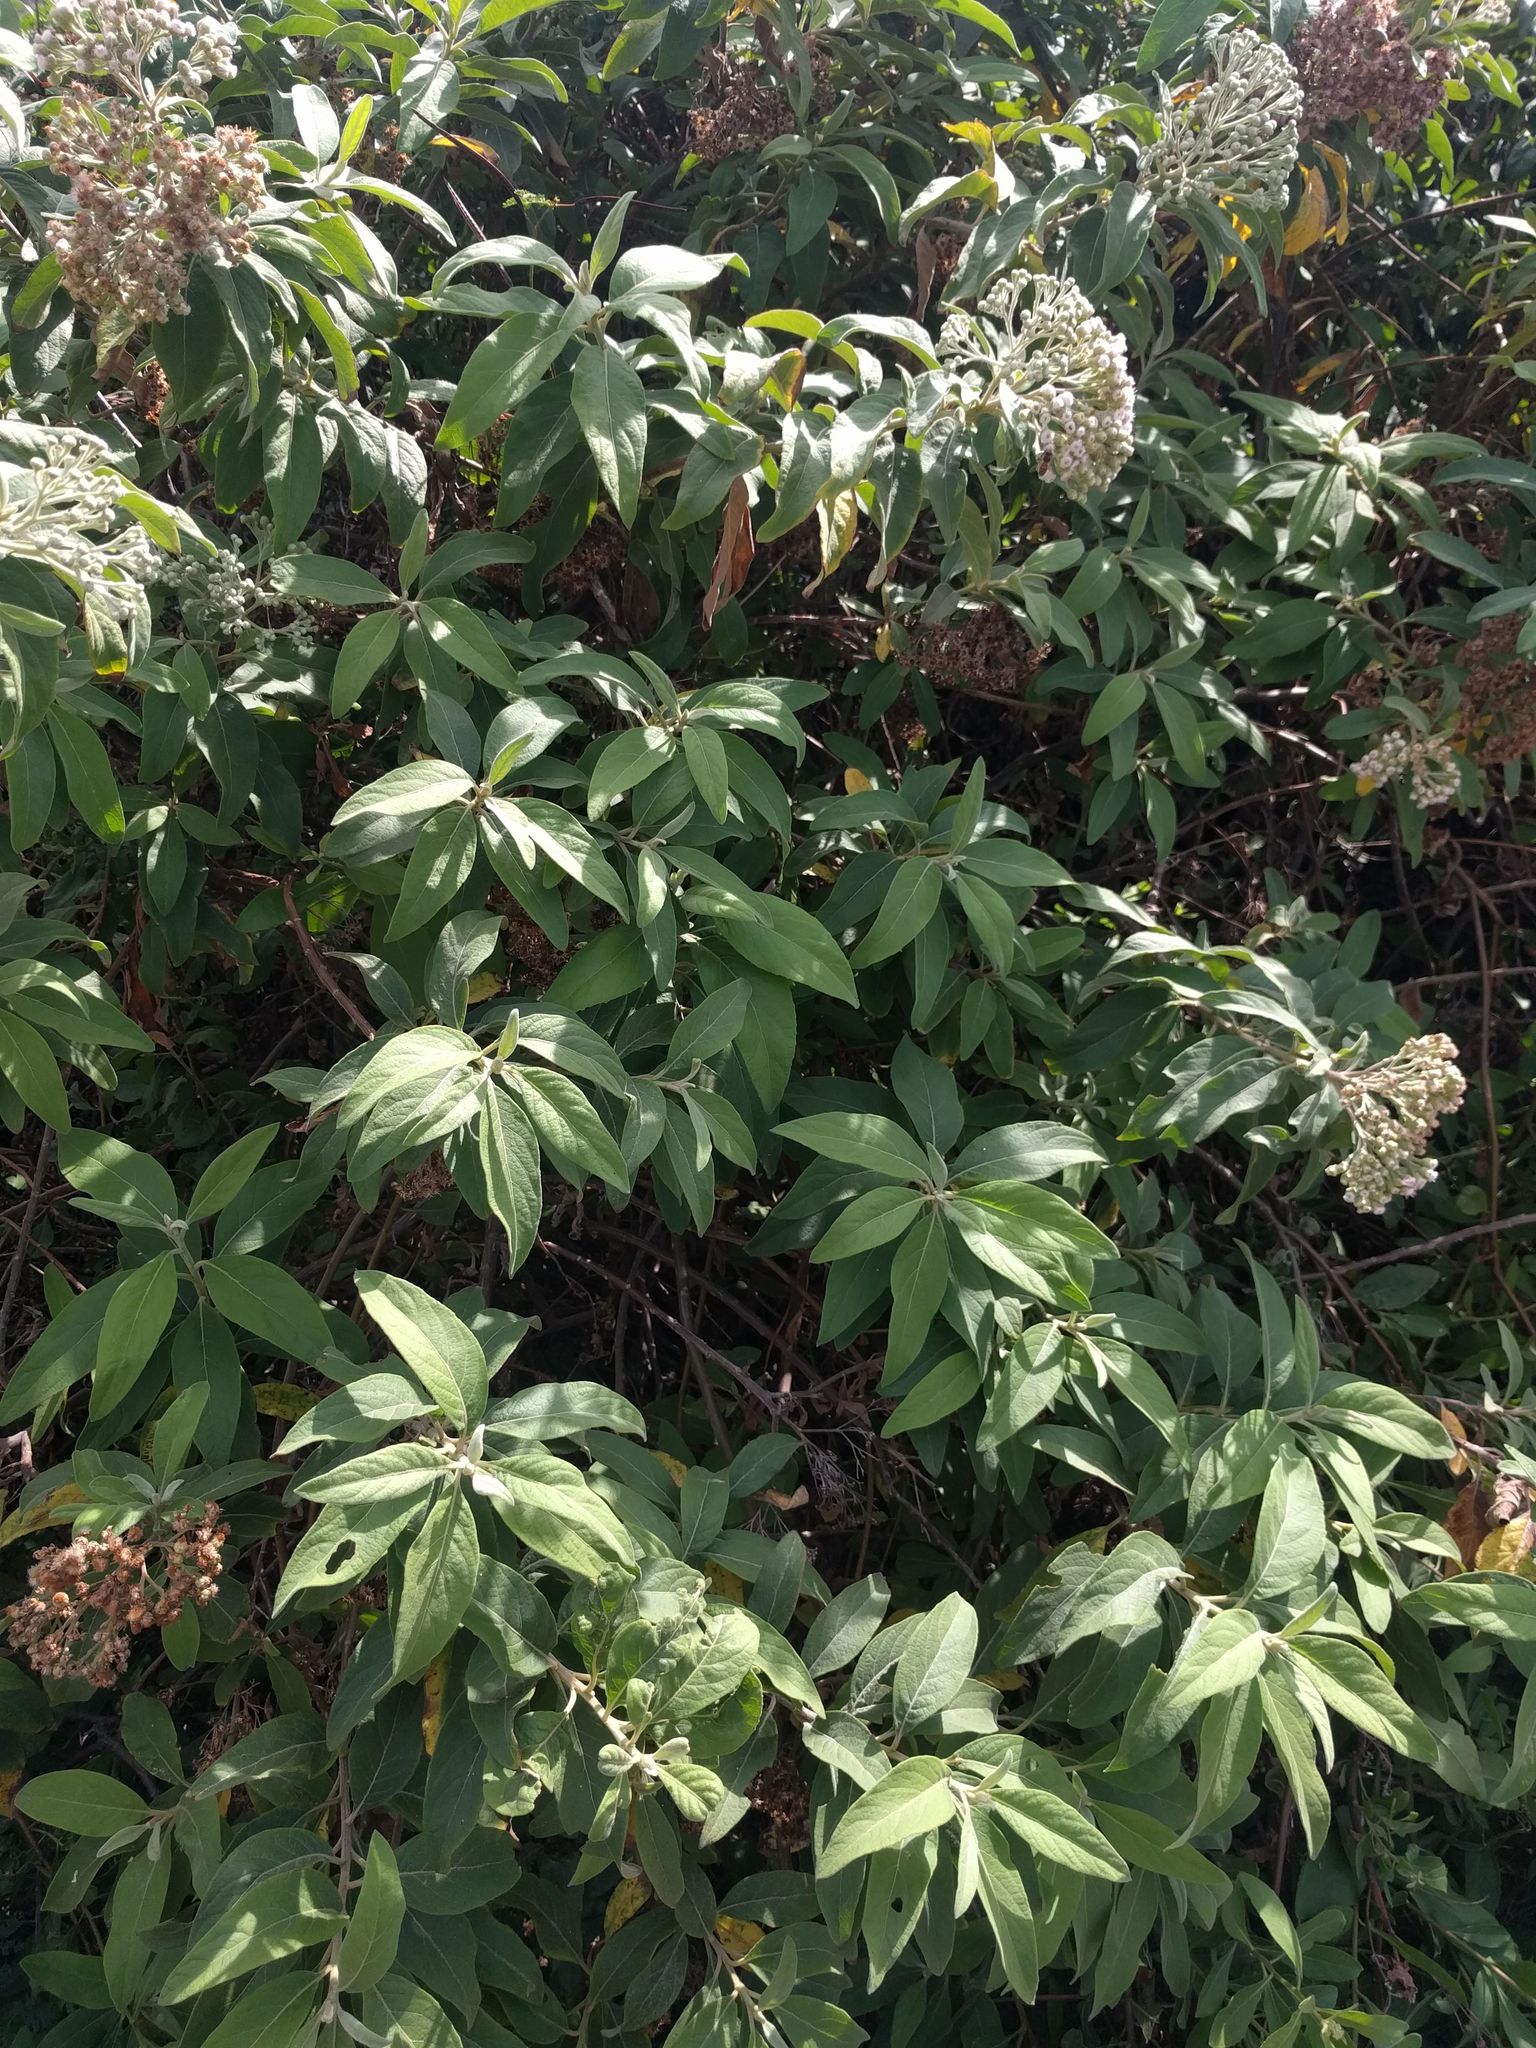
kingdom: Plantae
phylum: Tracheophyta
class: Magnoliopsida
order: Asterales
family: Asteraceae
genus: Pluchea
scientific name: Pluchea carolinensis
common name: Marsh fleabane
